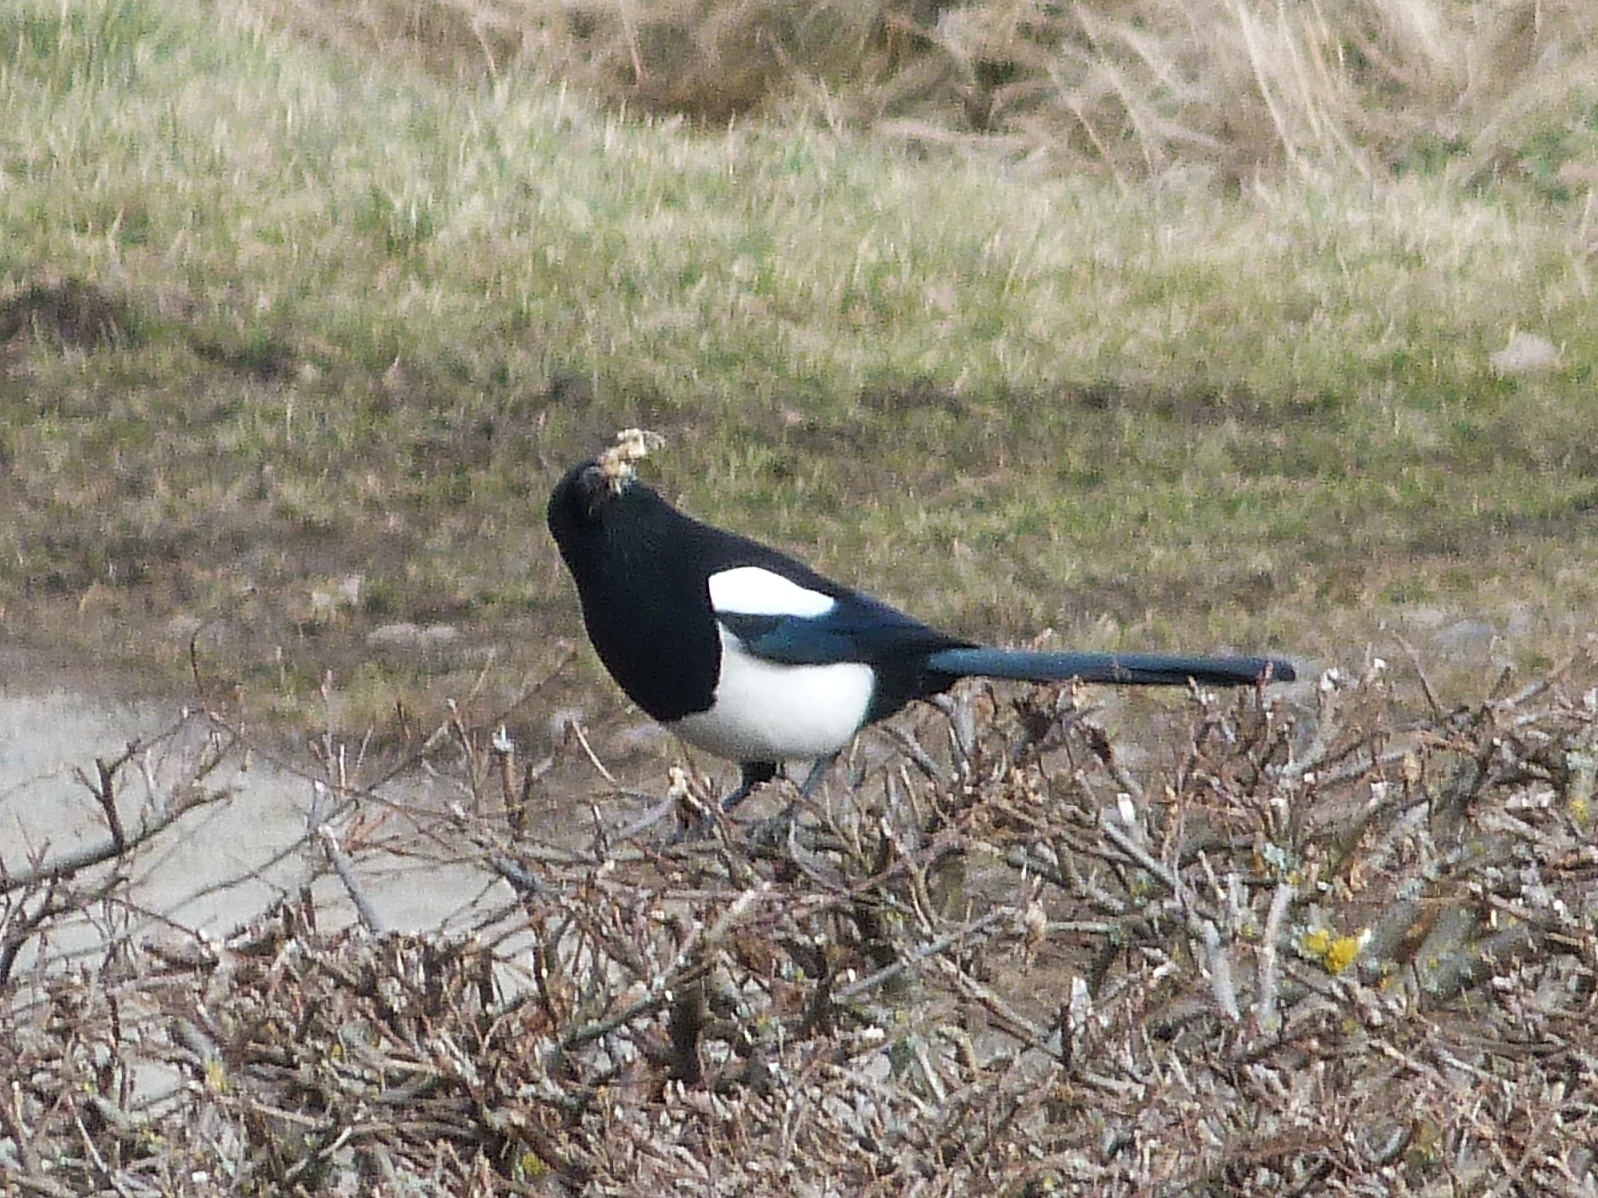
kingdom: Animalia
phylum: Chordata
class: Aves
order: Passeriformes
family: Corvidae
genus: Pica
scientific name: Pica pica
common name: Eurasian magpie
